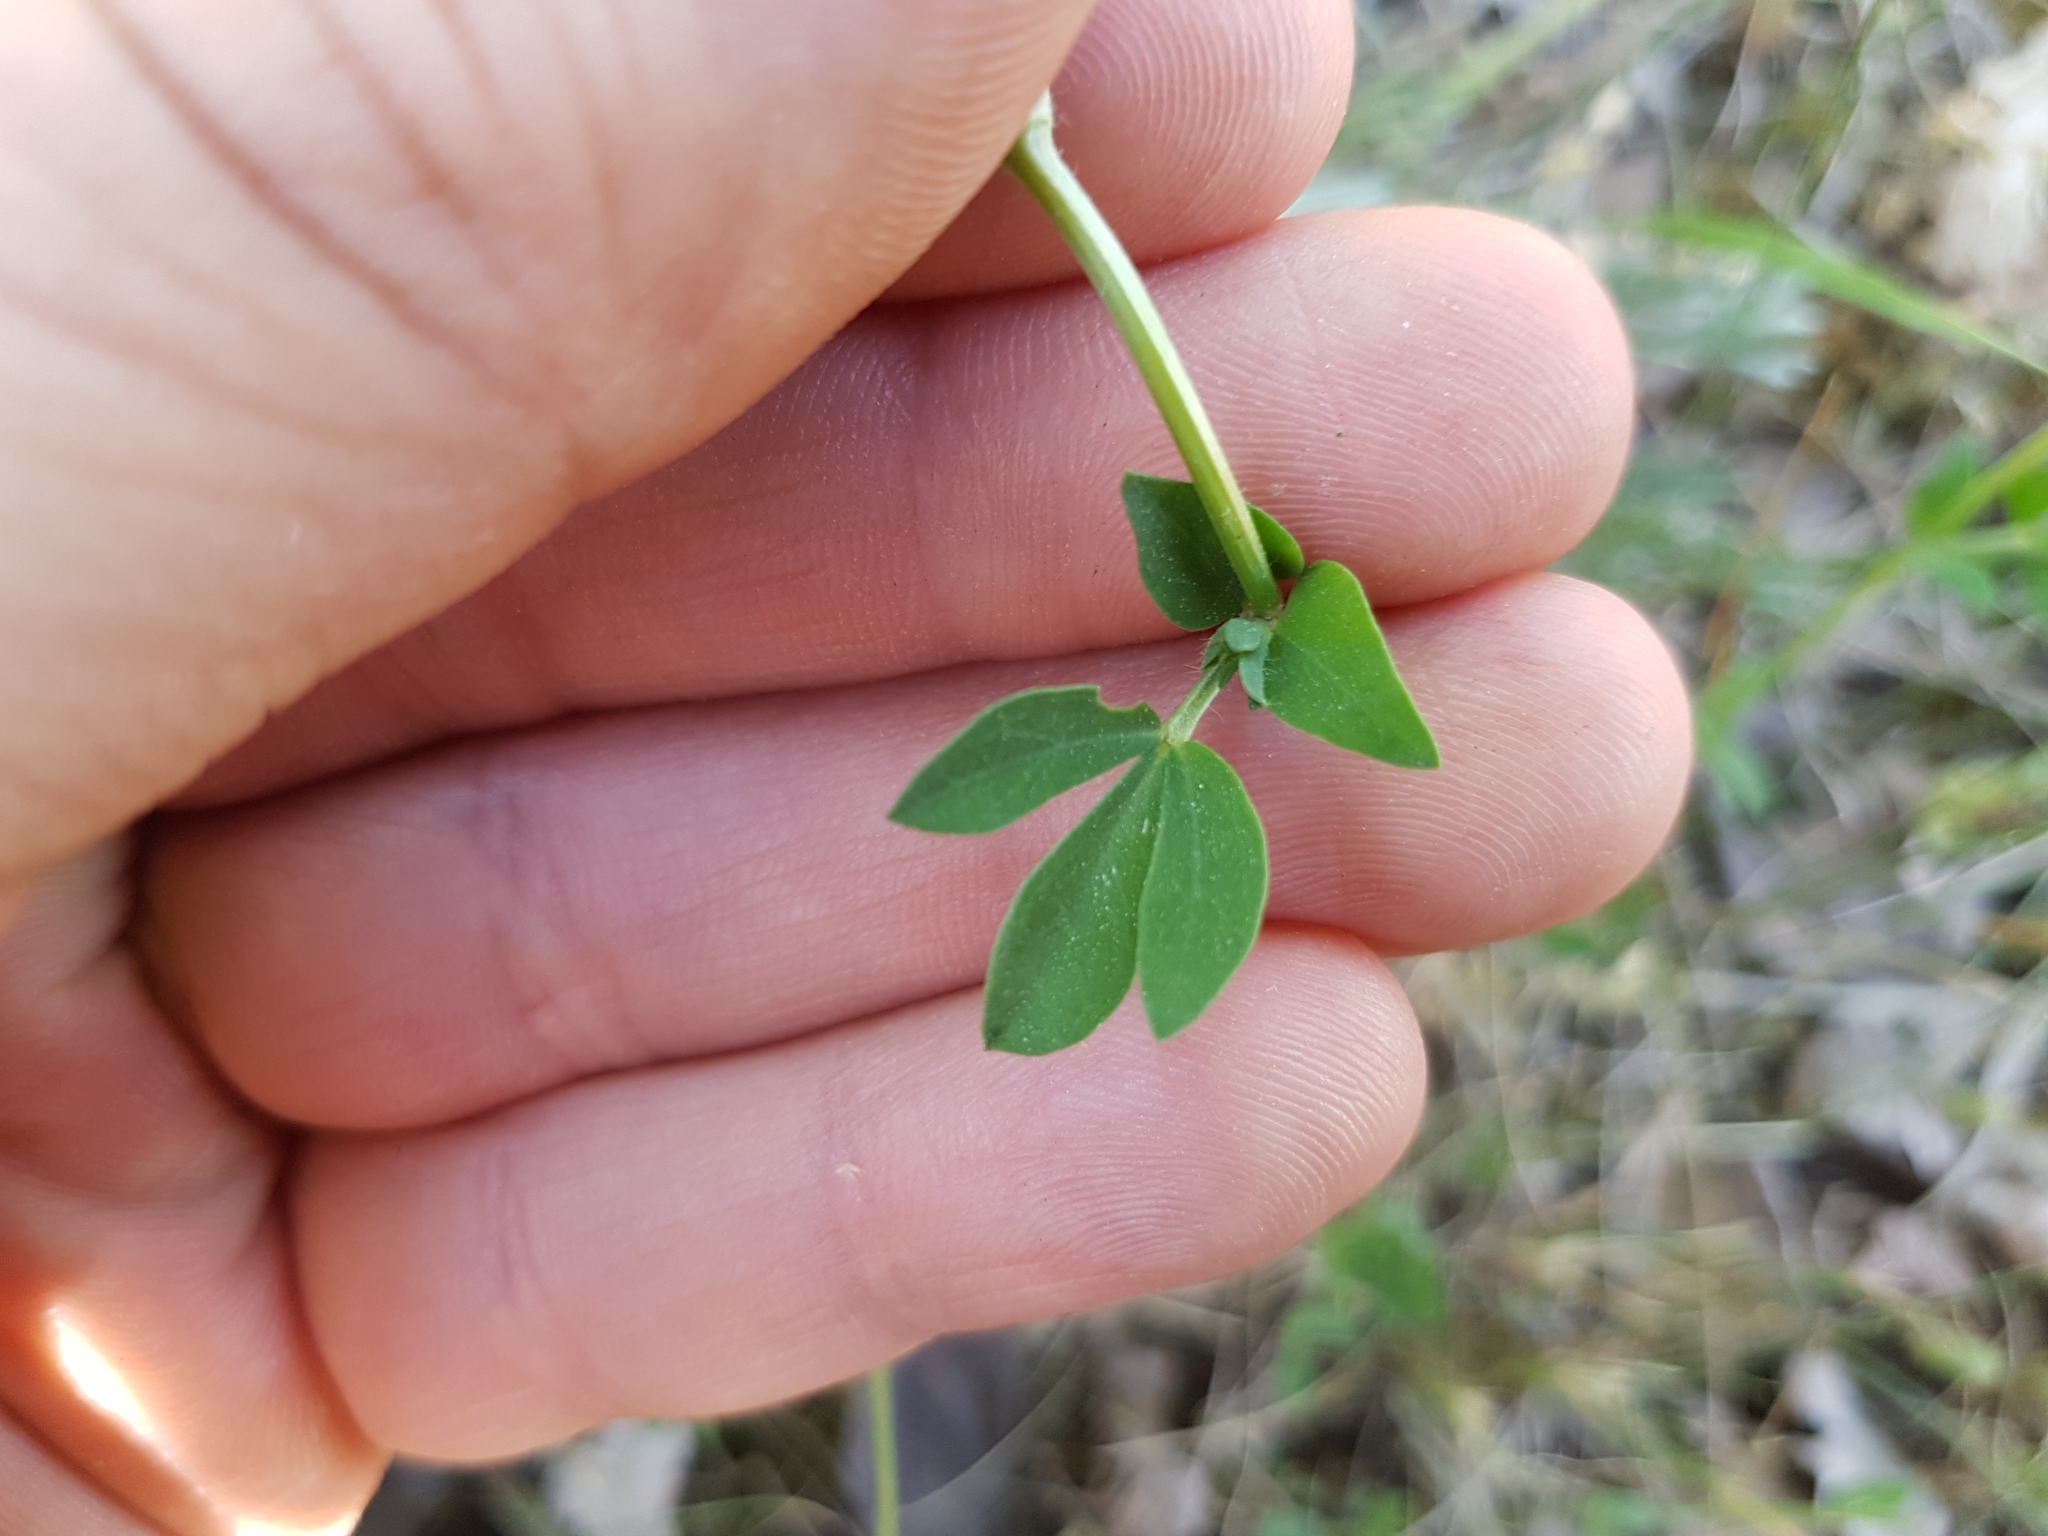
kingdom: Plantae
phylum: Tracheophyta
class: Magnoliopsida
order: Fabales
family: Fabaceae
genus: Lotus
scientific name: Lotus corniculatus
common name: Common bird's-foot-trefoil
